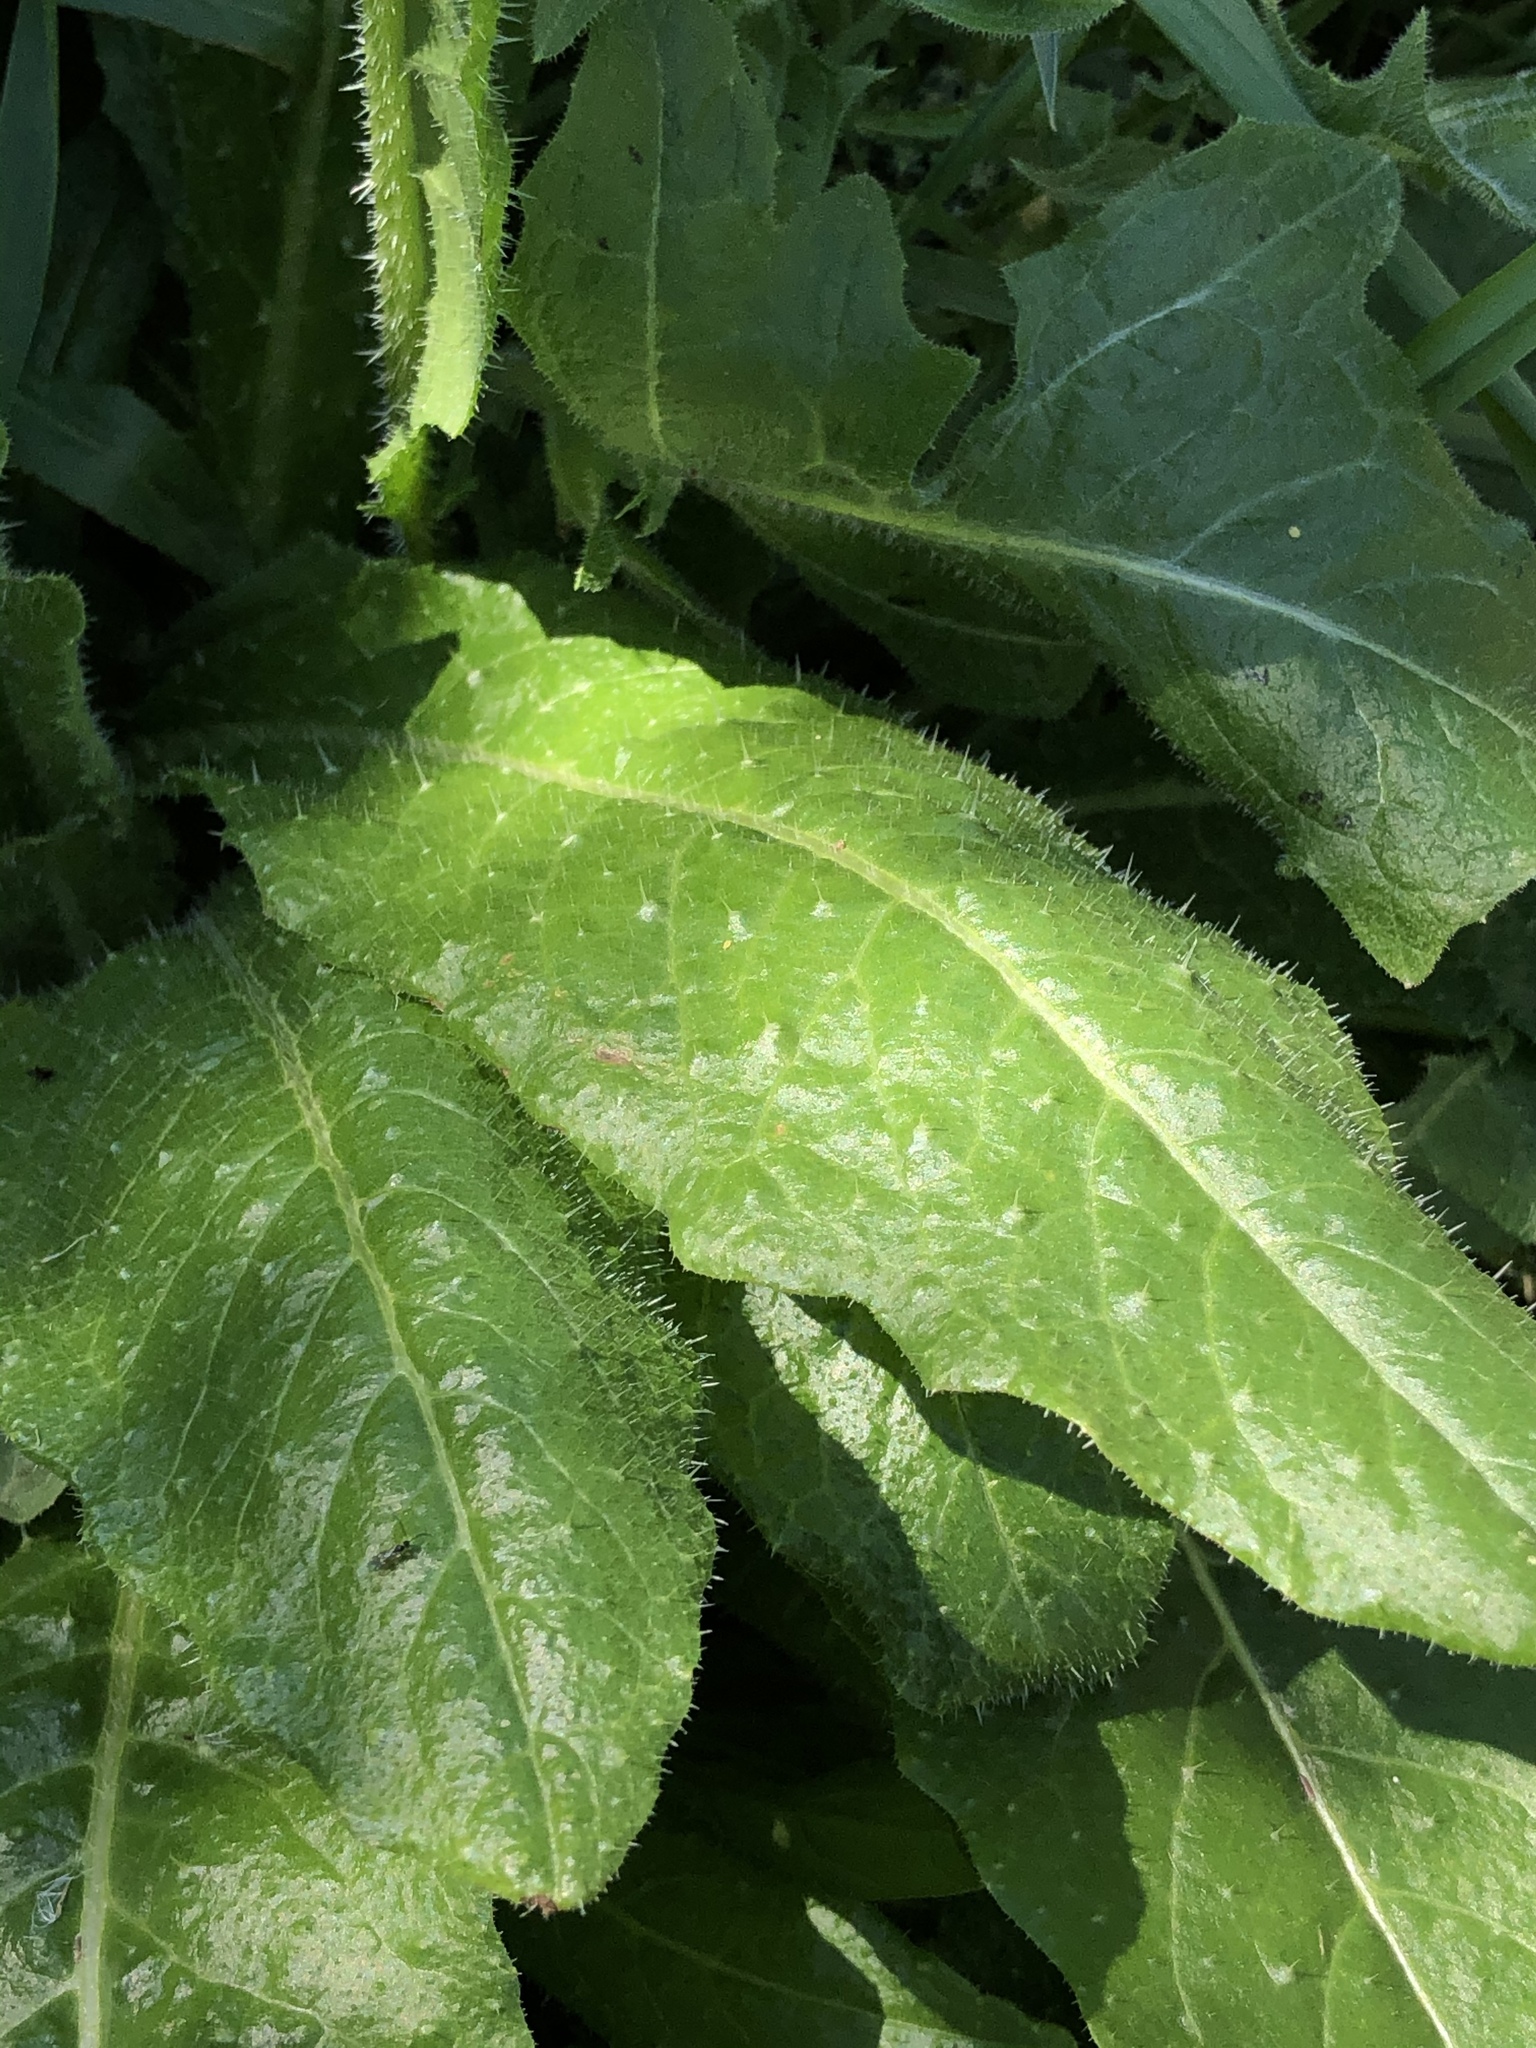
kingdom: Plantae
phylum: Tracheophyta
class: Magnoliopsida
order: Asterales
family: Asteraceae
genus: Helminthotheca
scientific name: Helminthotheca echioides
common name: Ox-tongue
